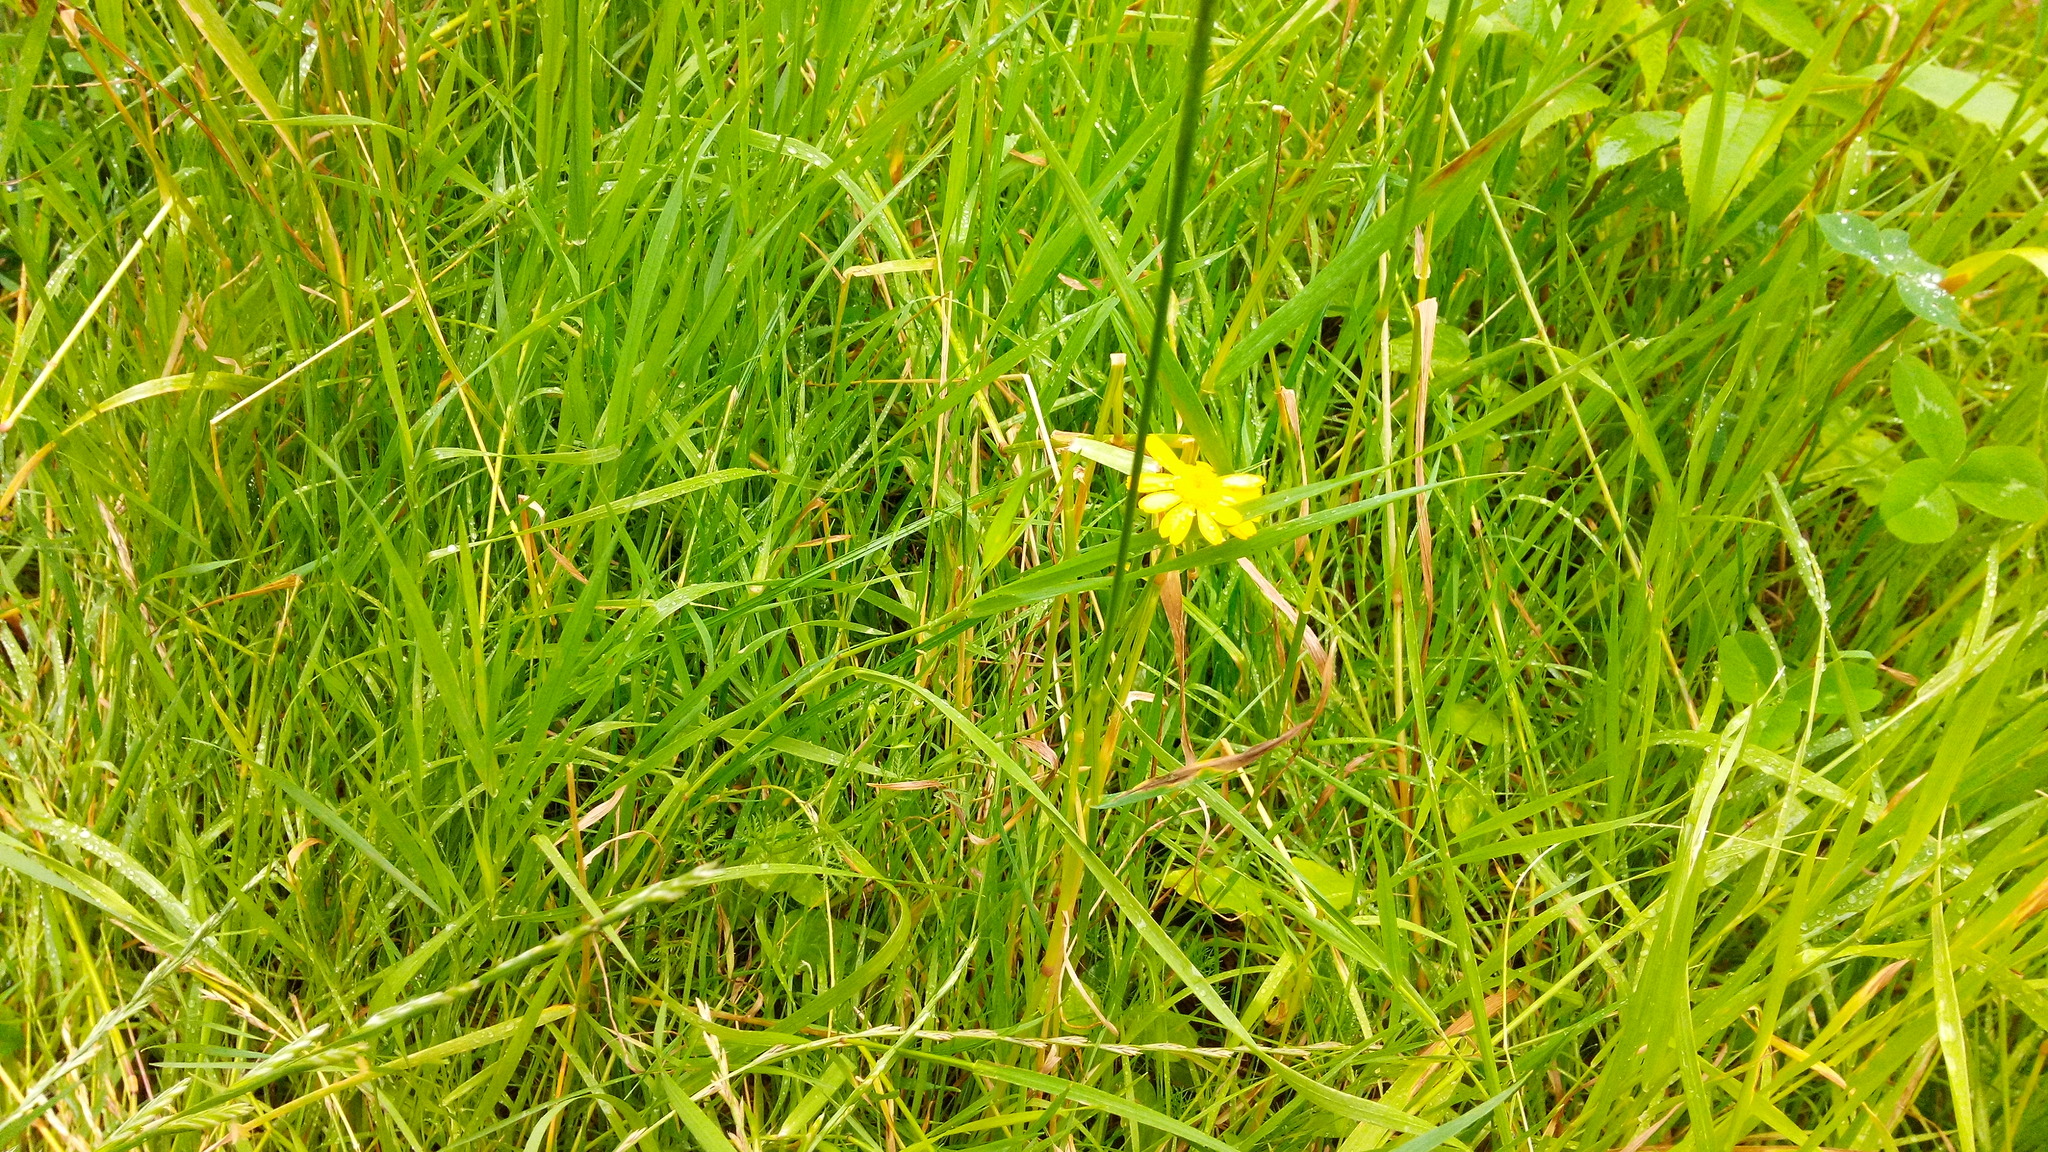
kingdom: Plantae
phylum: Tracheophyta
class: Magnoliopsida
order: Asterales
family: Asteraceae
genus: Cota
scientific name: Cota tinctoria
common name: Golden chamomile
